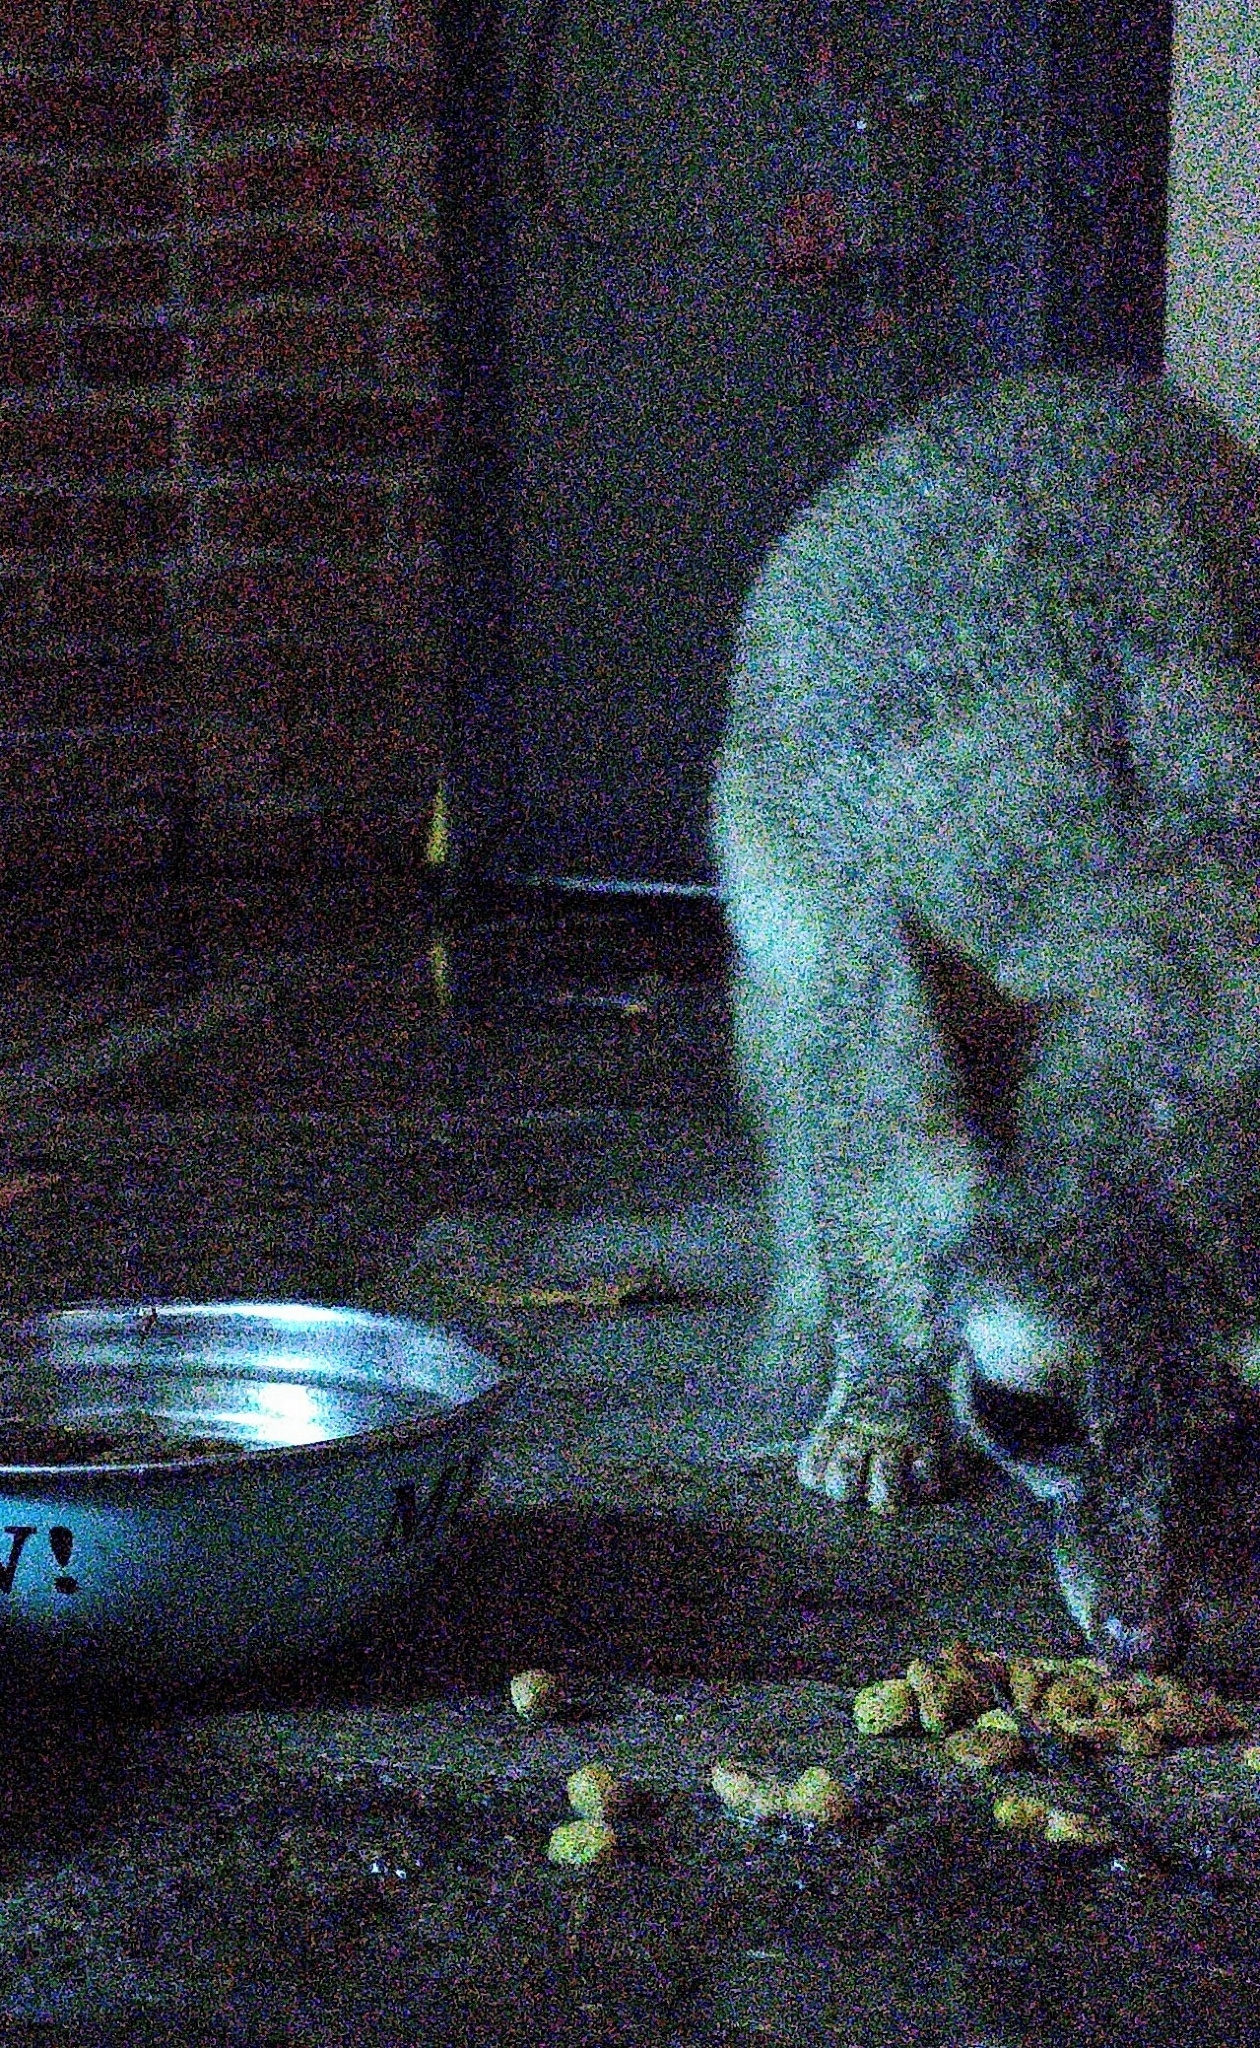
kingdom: Animalia
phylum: Chordata
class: Mammalia
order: Carnivora
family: Procyonidae
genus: Bassariscus
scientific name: Bassariscus astutus
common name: Ringtail
